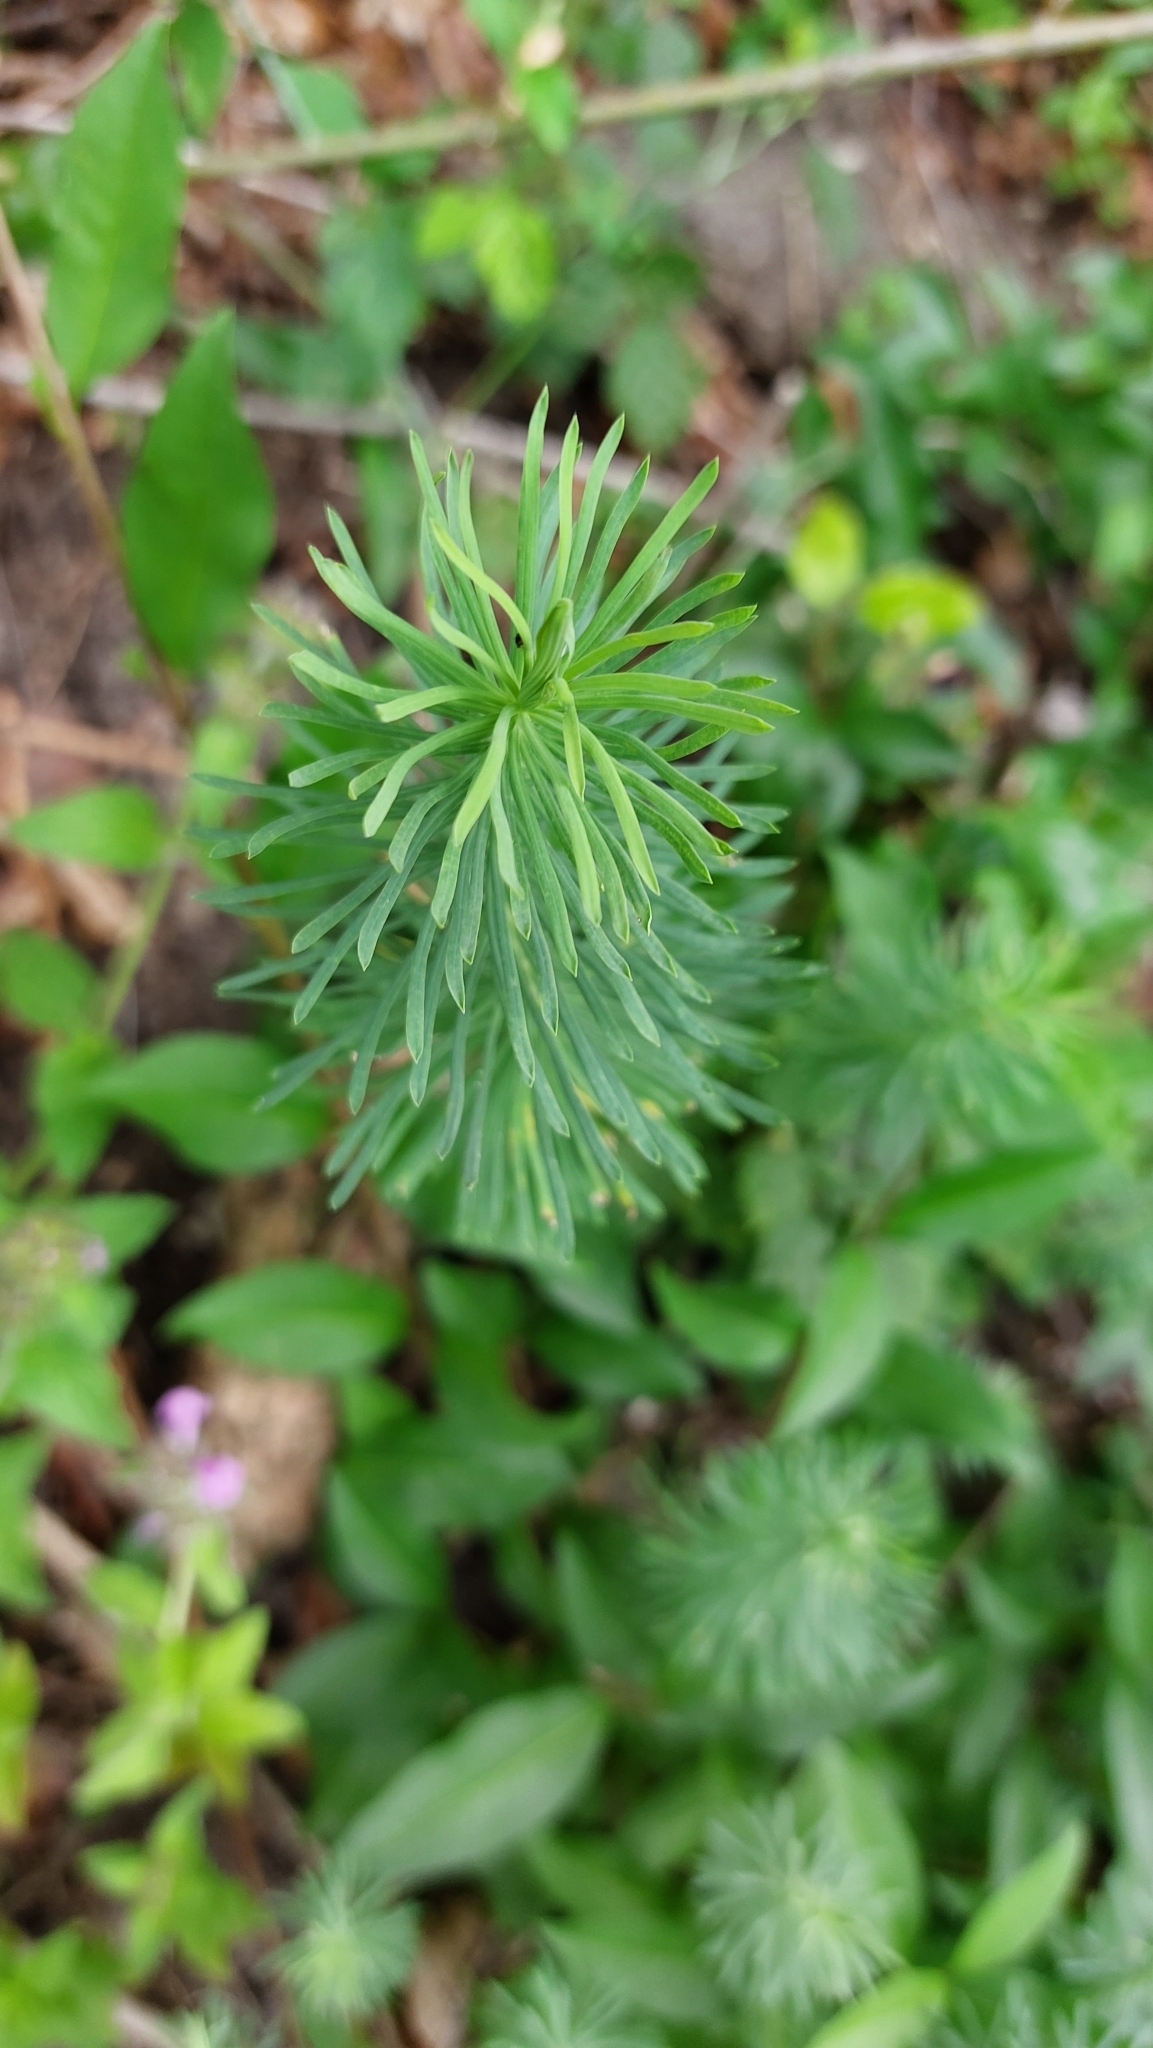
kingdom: Plantae
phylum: Tracheophyta
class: Magnoliopsida
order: Malpighiales
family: Euphorbiaceae
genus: Euphorbia
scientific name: Euphorbia cyparissias
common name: Cypress spurge
